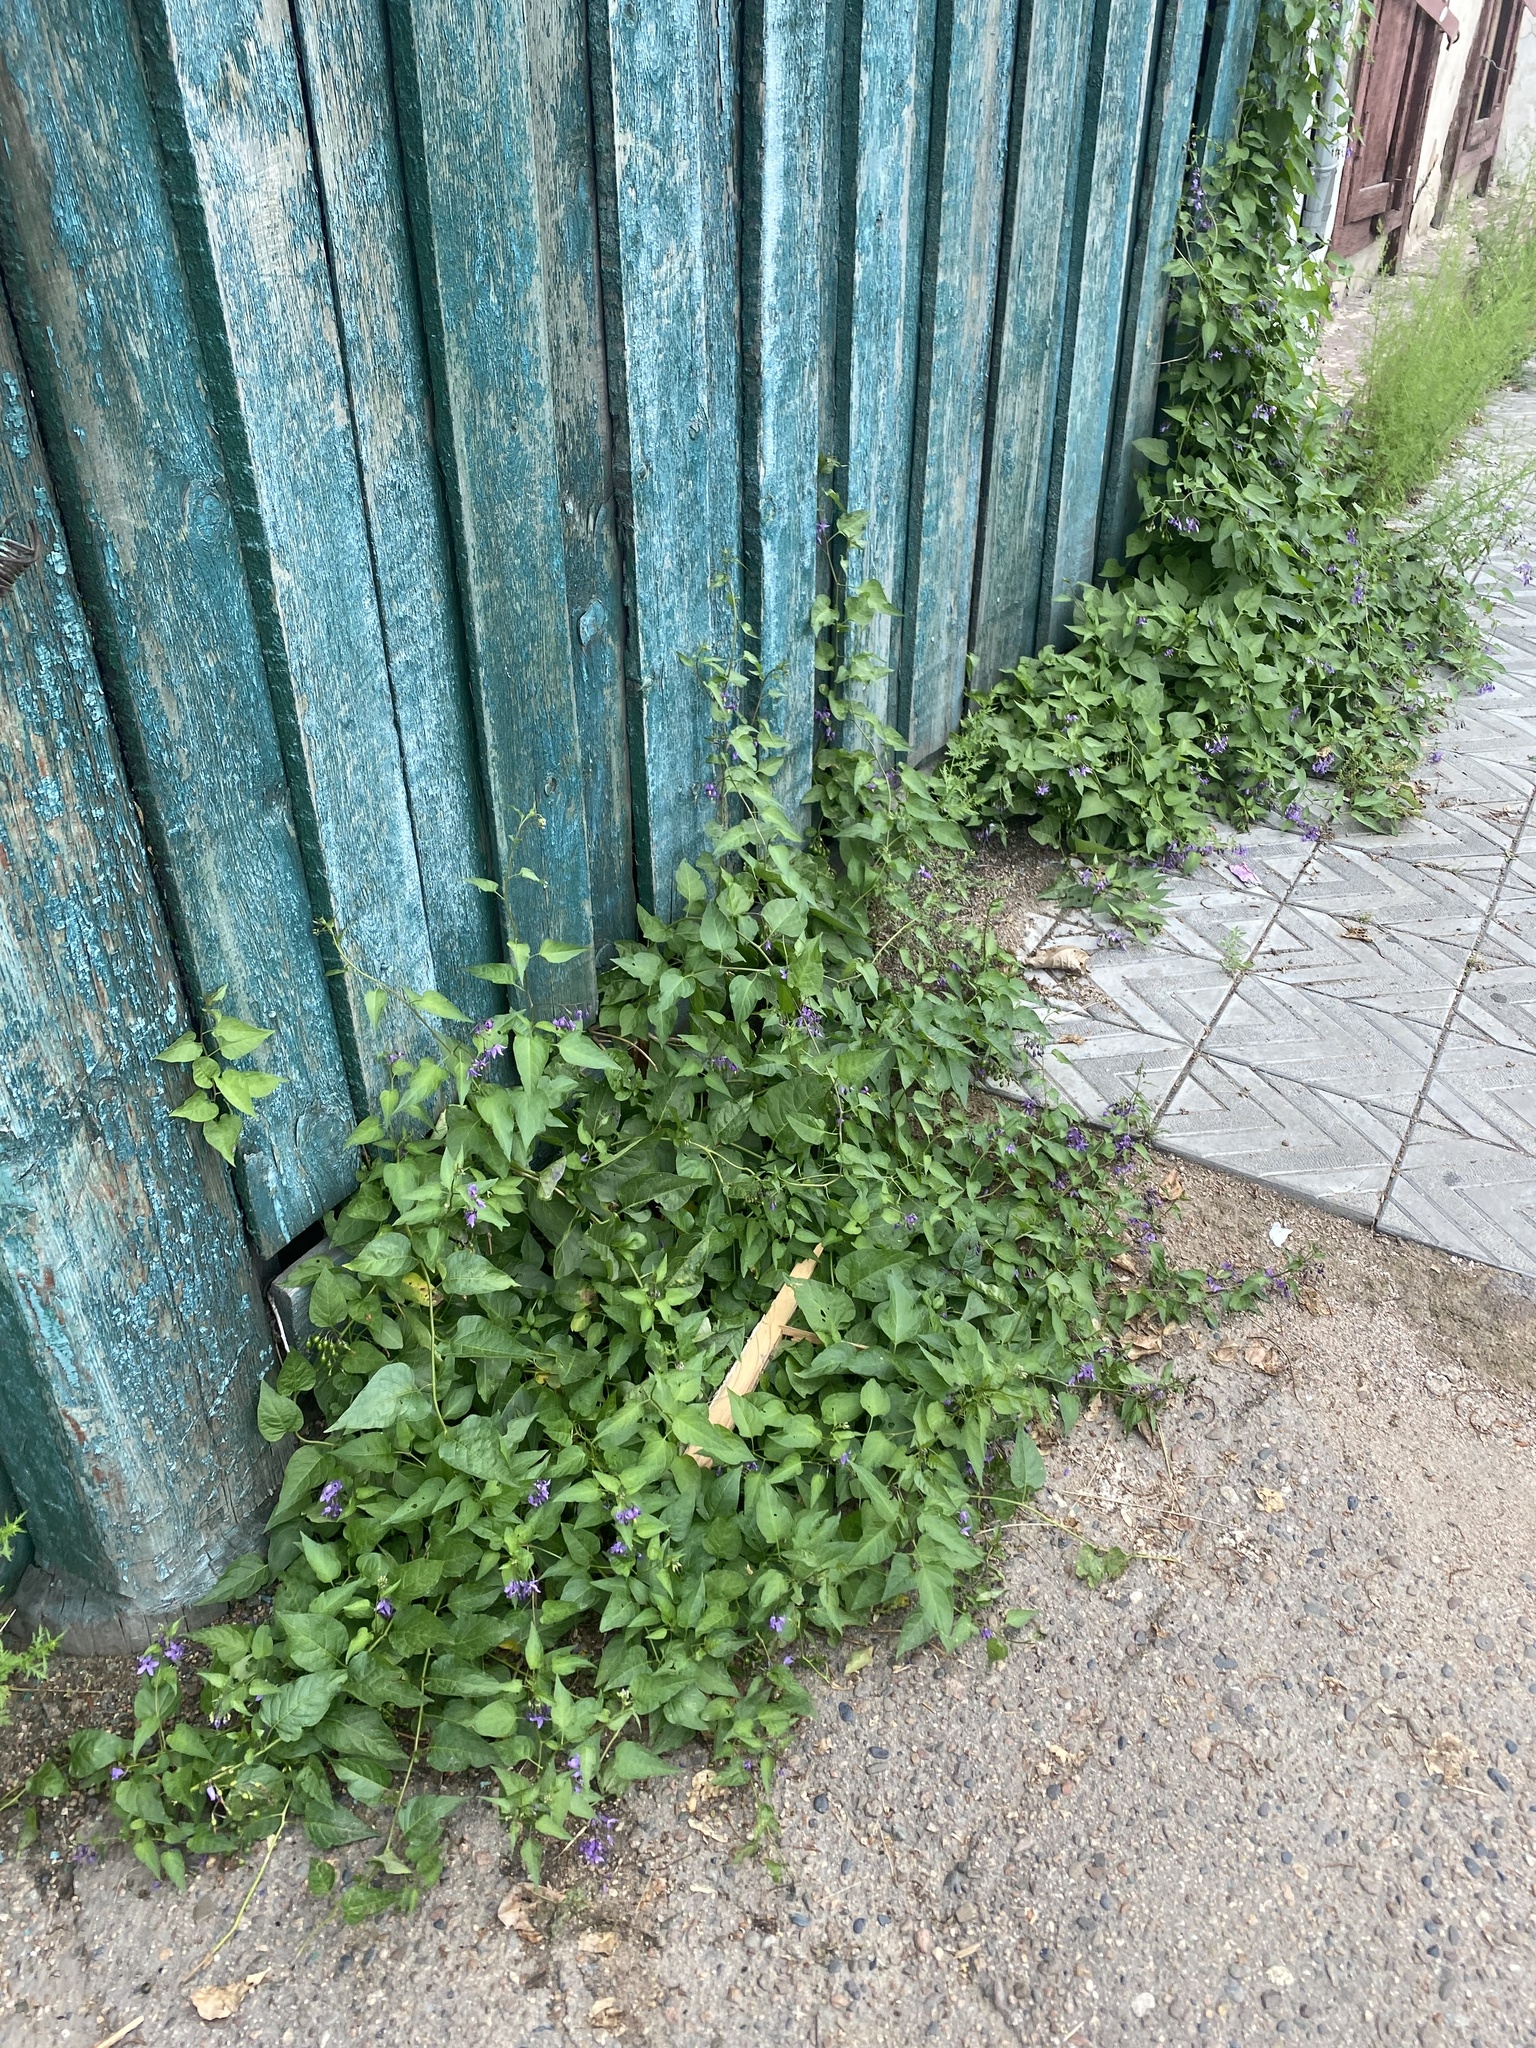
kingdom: Plantae
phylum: Tracheophyta
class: Magnoliopsida
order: Solanales
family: Solanaceae
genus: Solanum
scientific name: Solanum dulcamara
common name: Climbing nightshade
